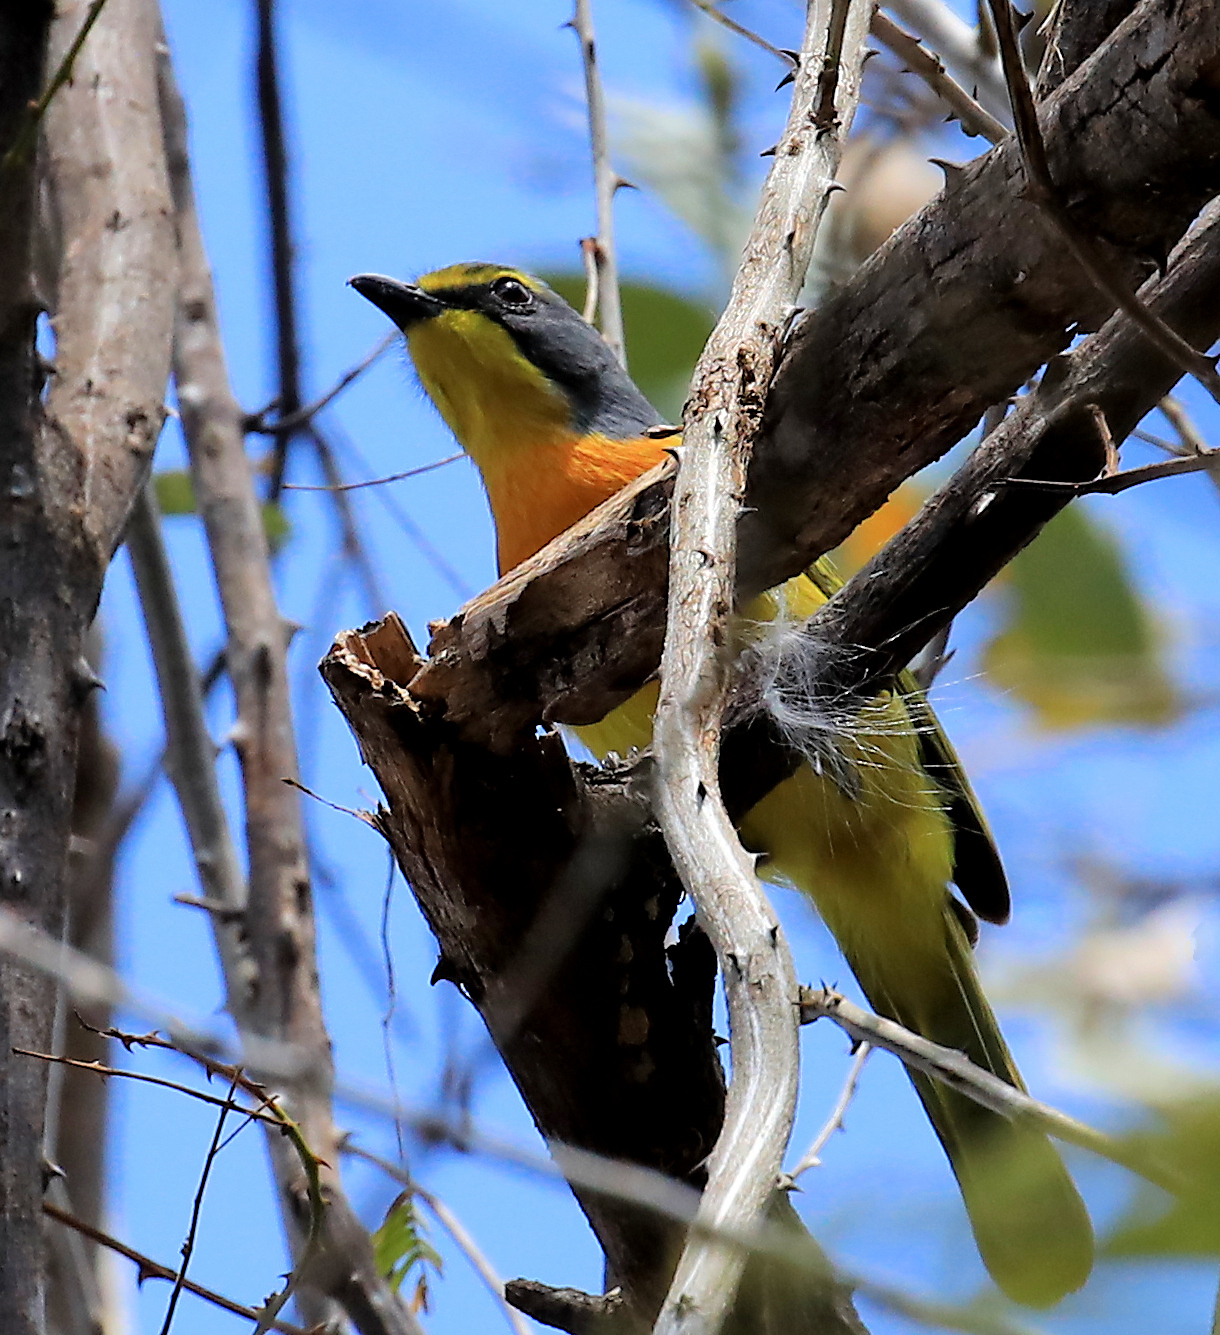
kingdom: Animalia
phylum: Chordata
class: Aves
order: Passeriformes
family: Malaconotidae
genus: Chlorophoneus
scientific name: Chlorophoneus sulfureopectus
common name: Orange-breasted bushshrike
